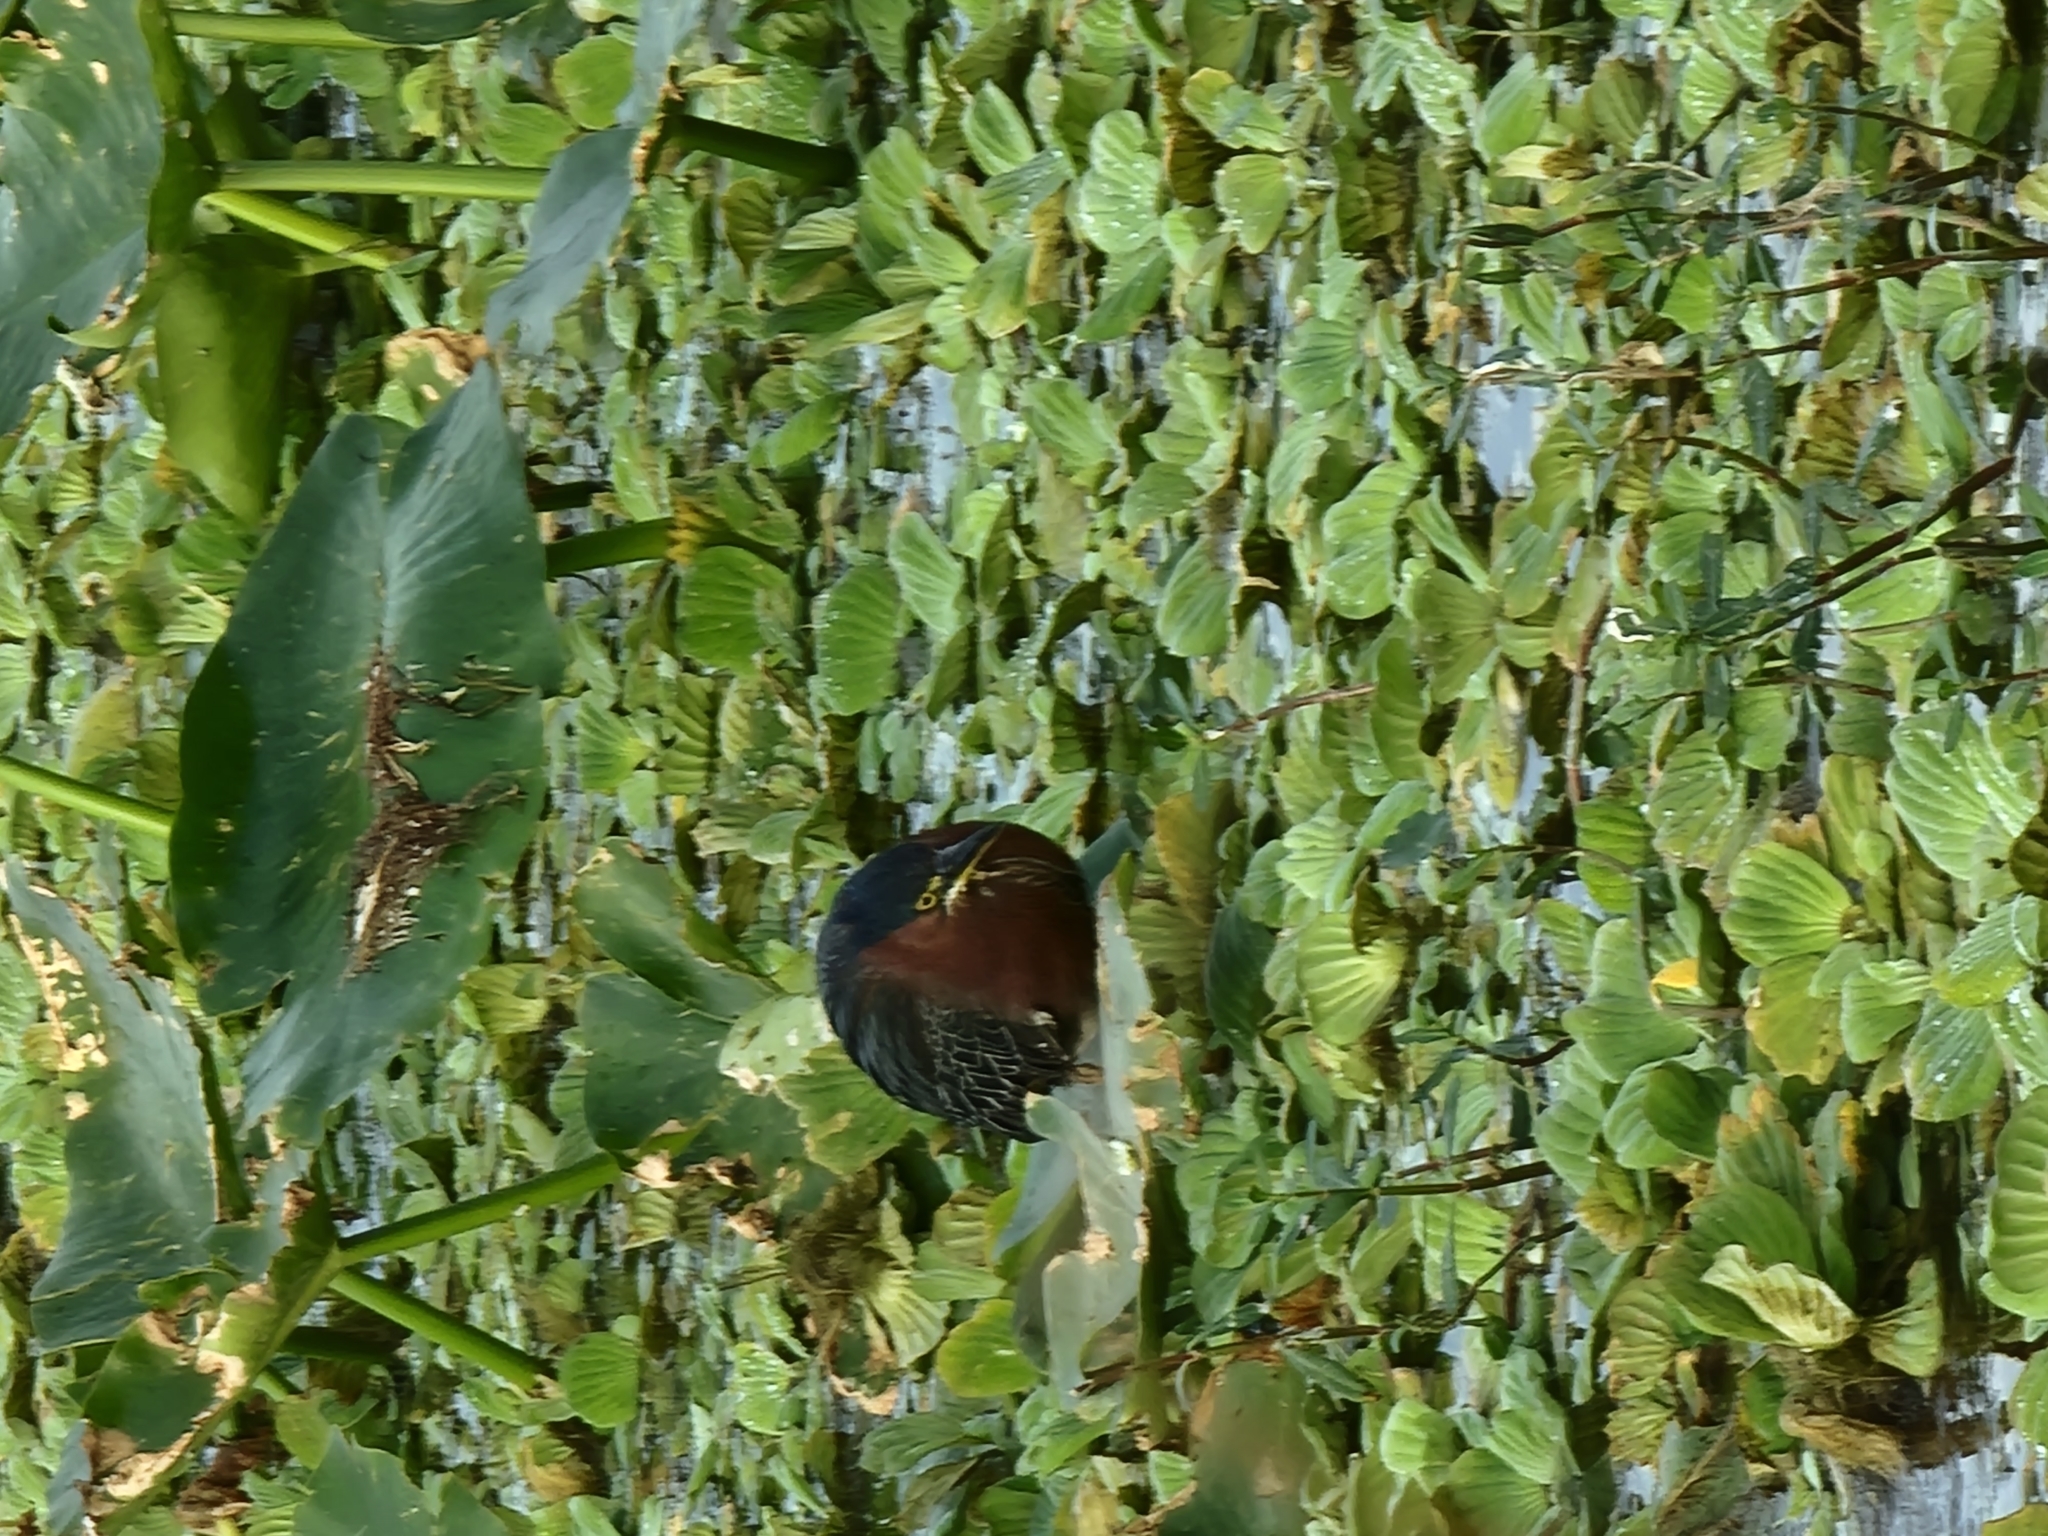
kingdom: Animalia
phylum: Chordata
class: Aves
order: Pelecaniformes
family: Ardeidae
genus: Butorides
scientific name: Butorides virescens
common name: Green heron
